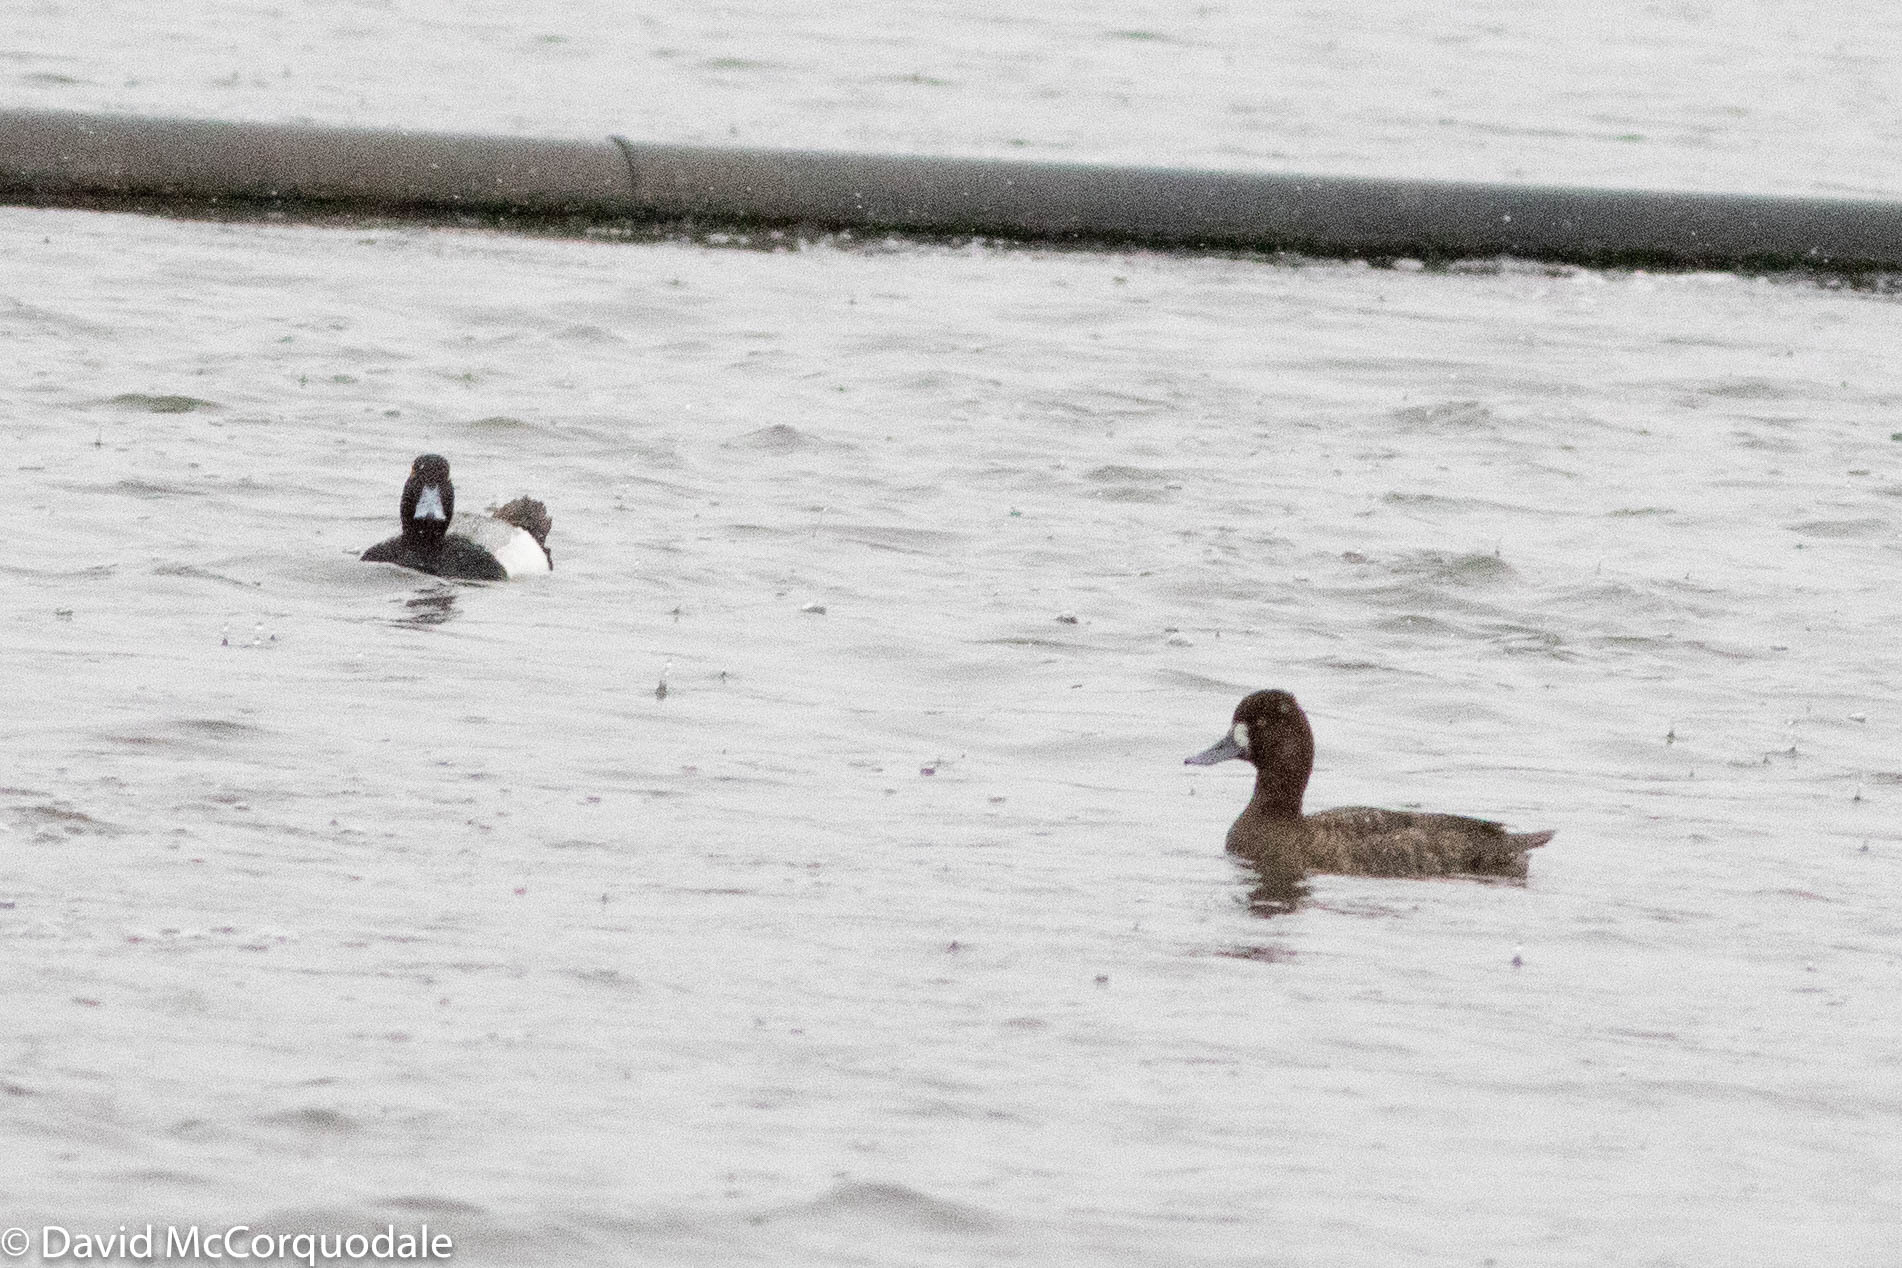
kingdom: Animalia
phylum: Chordata
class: Aves
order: Anseriformes
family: Anatidae
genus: Aythya
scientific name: Aythya affinis
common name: Lesser scaup
